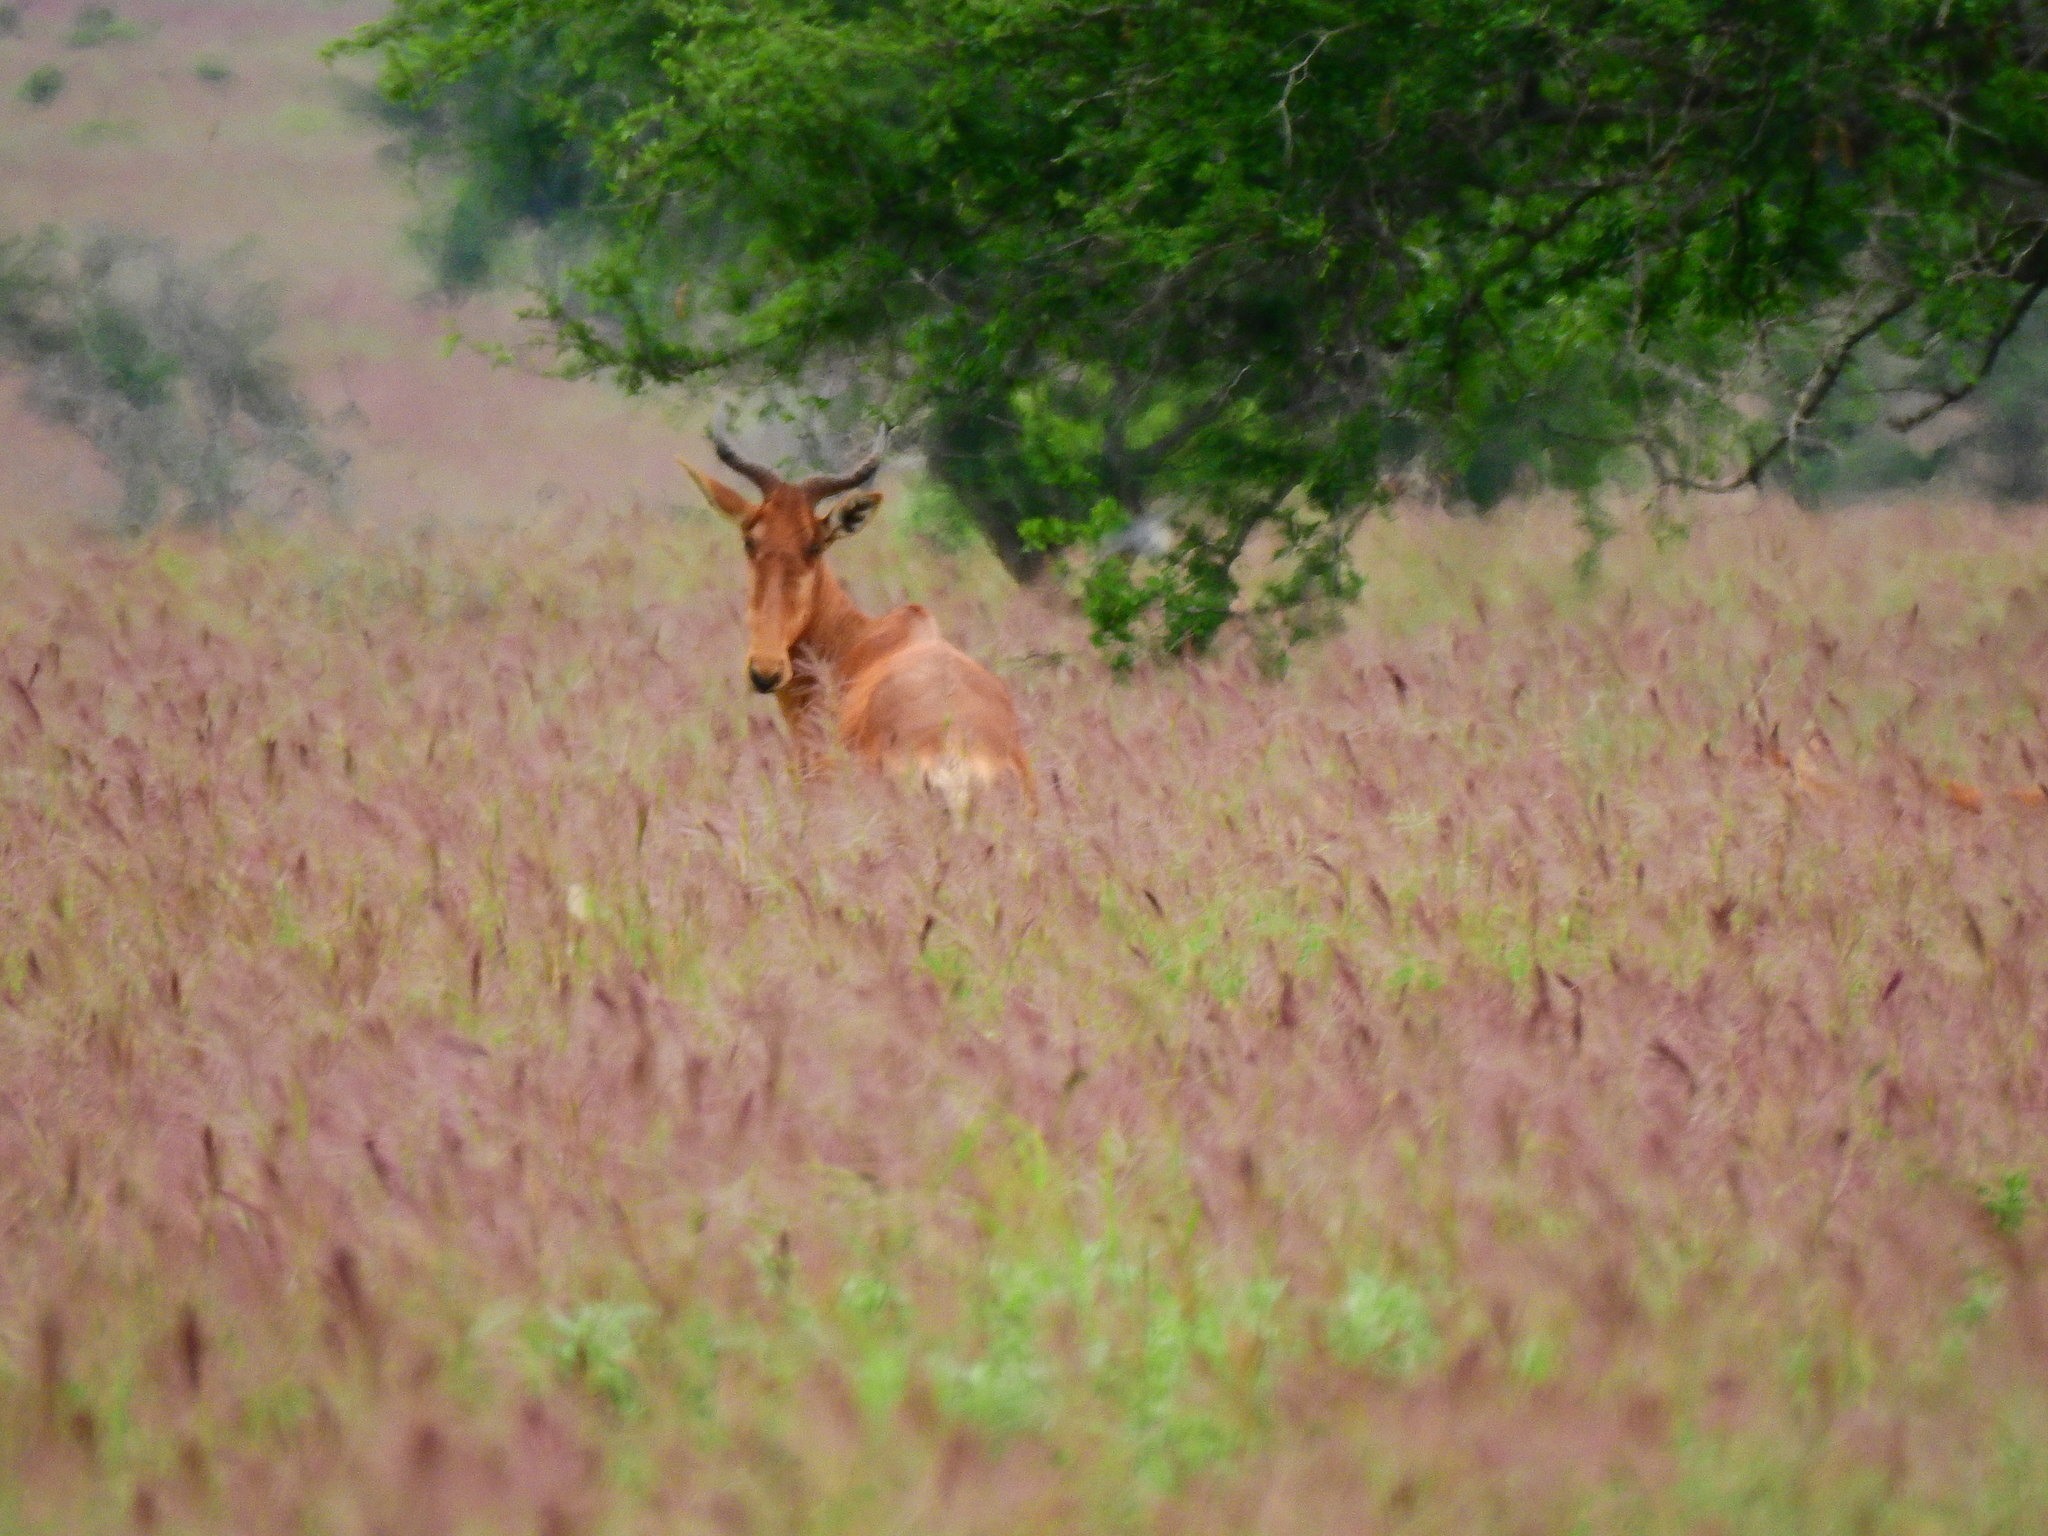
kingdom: Animalia
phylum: Chordata
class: Mammalia
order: Artiodactyla
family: Bovidae
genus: Alcelaphus
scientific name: Alcelaphus buselaphus
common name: Hartebeest
